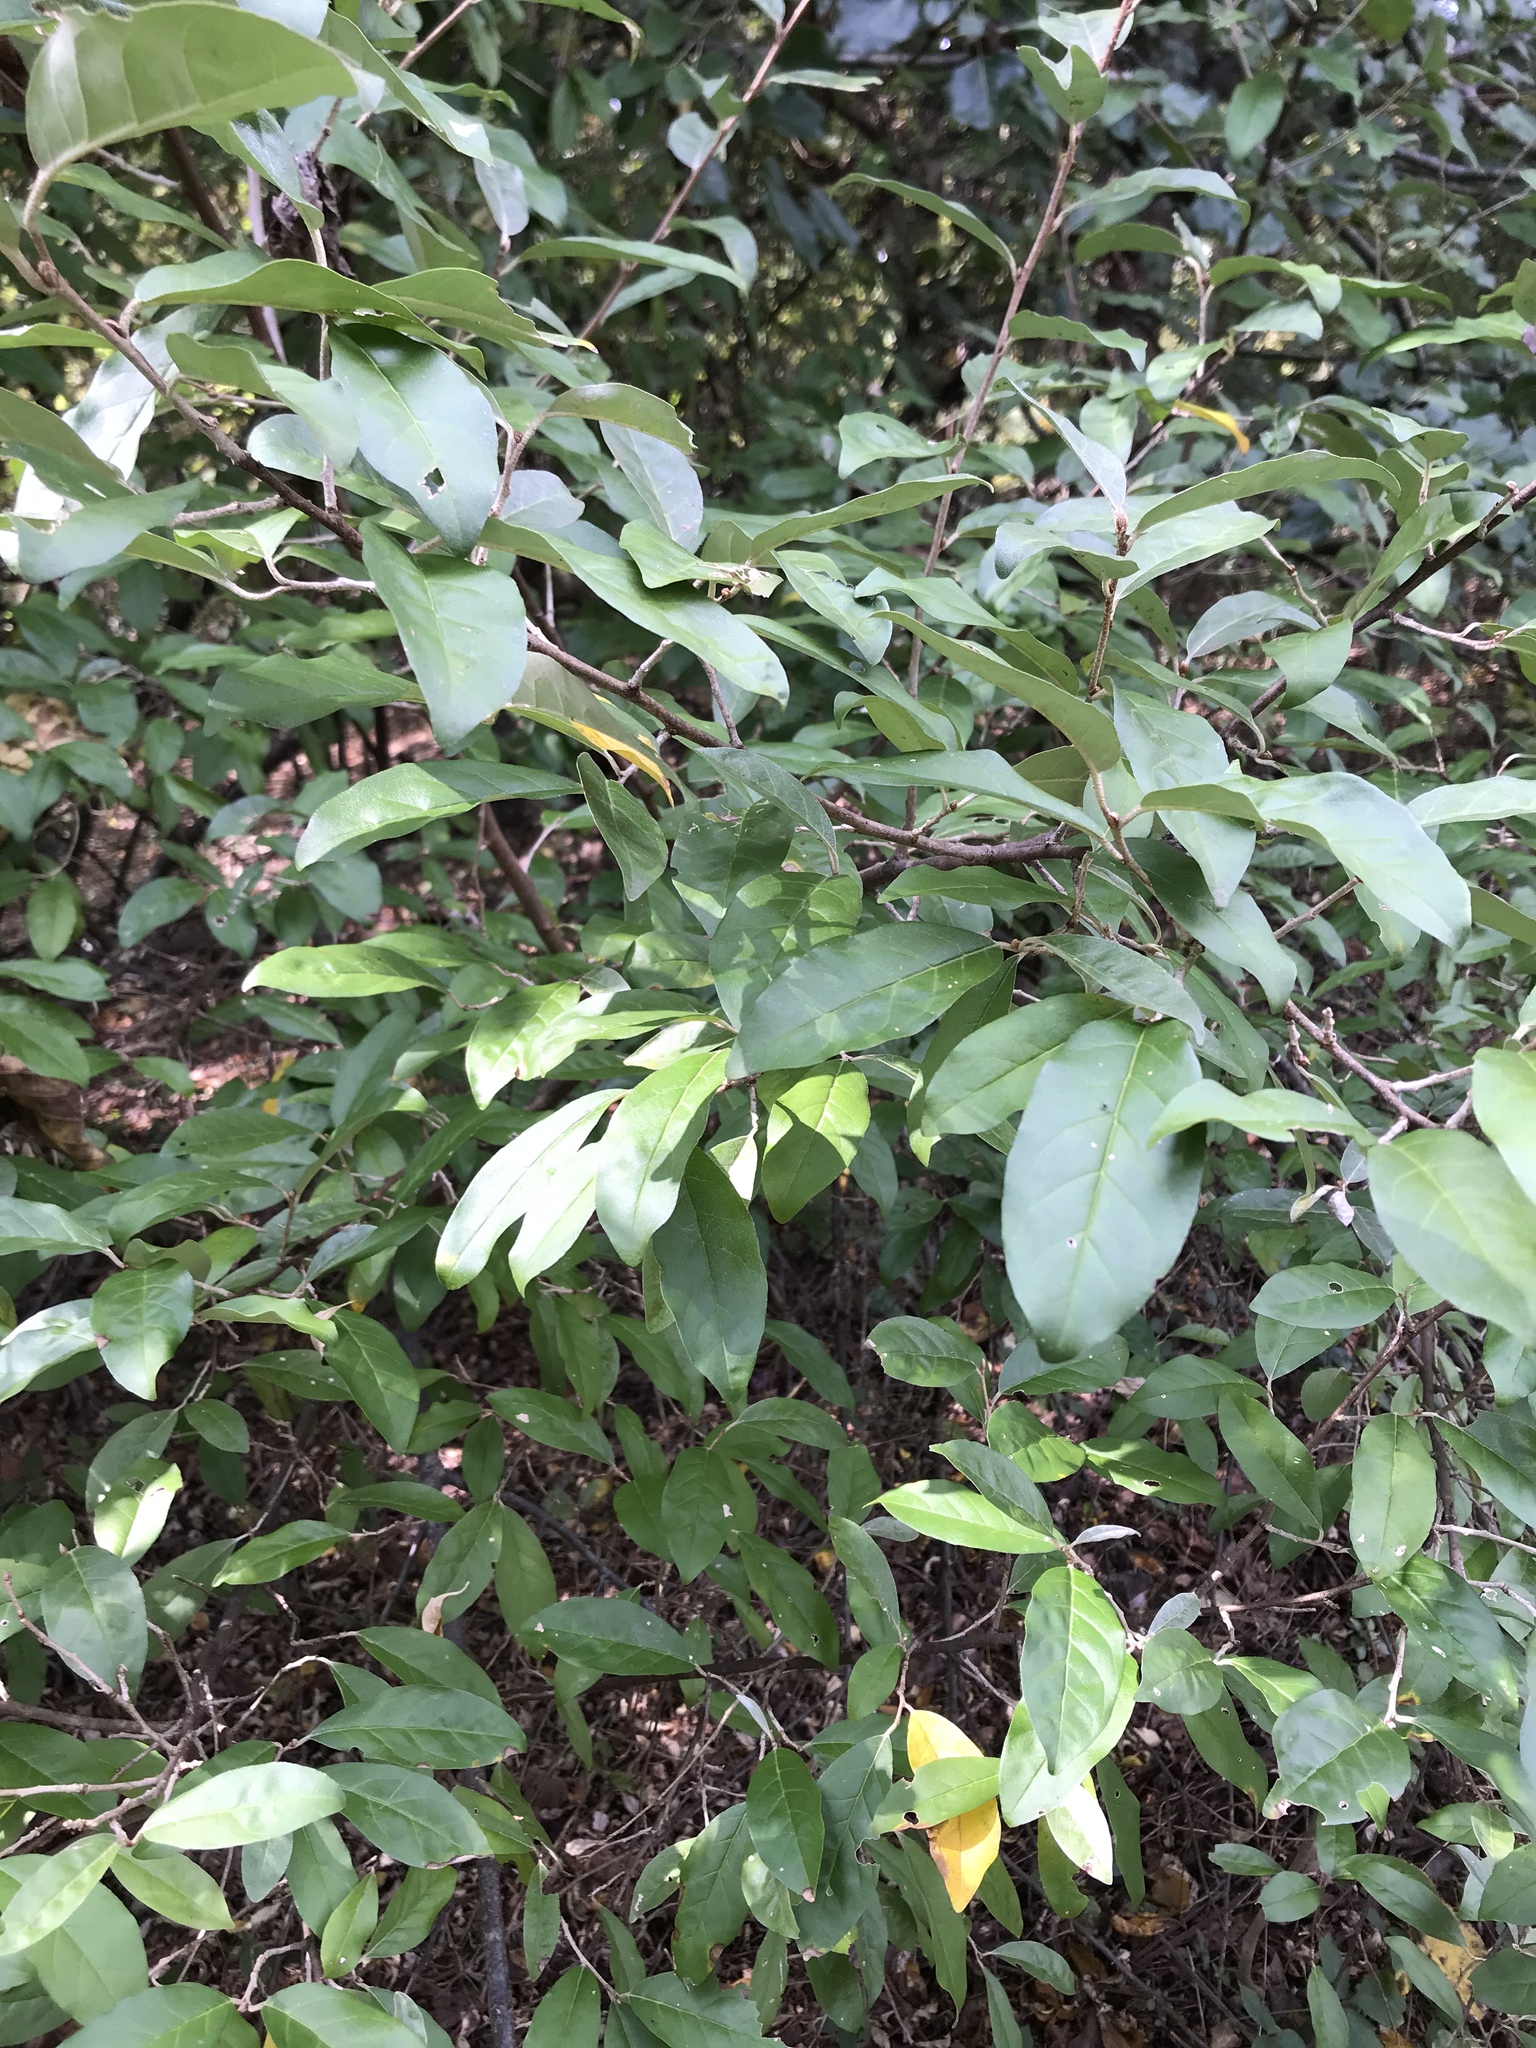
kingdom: Plantae
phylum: Tracheophyta
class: Magnoliopsida
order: Rosales
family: Elaeagnaceae
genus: Elaeagnus
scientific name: Elaeagnus umbellata
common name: Autumn olive
